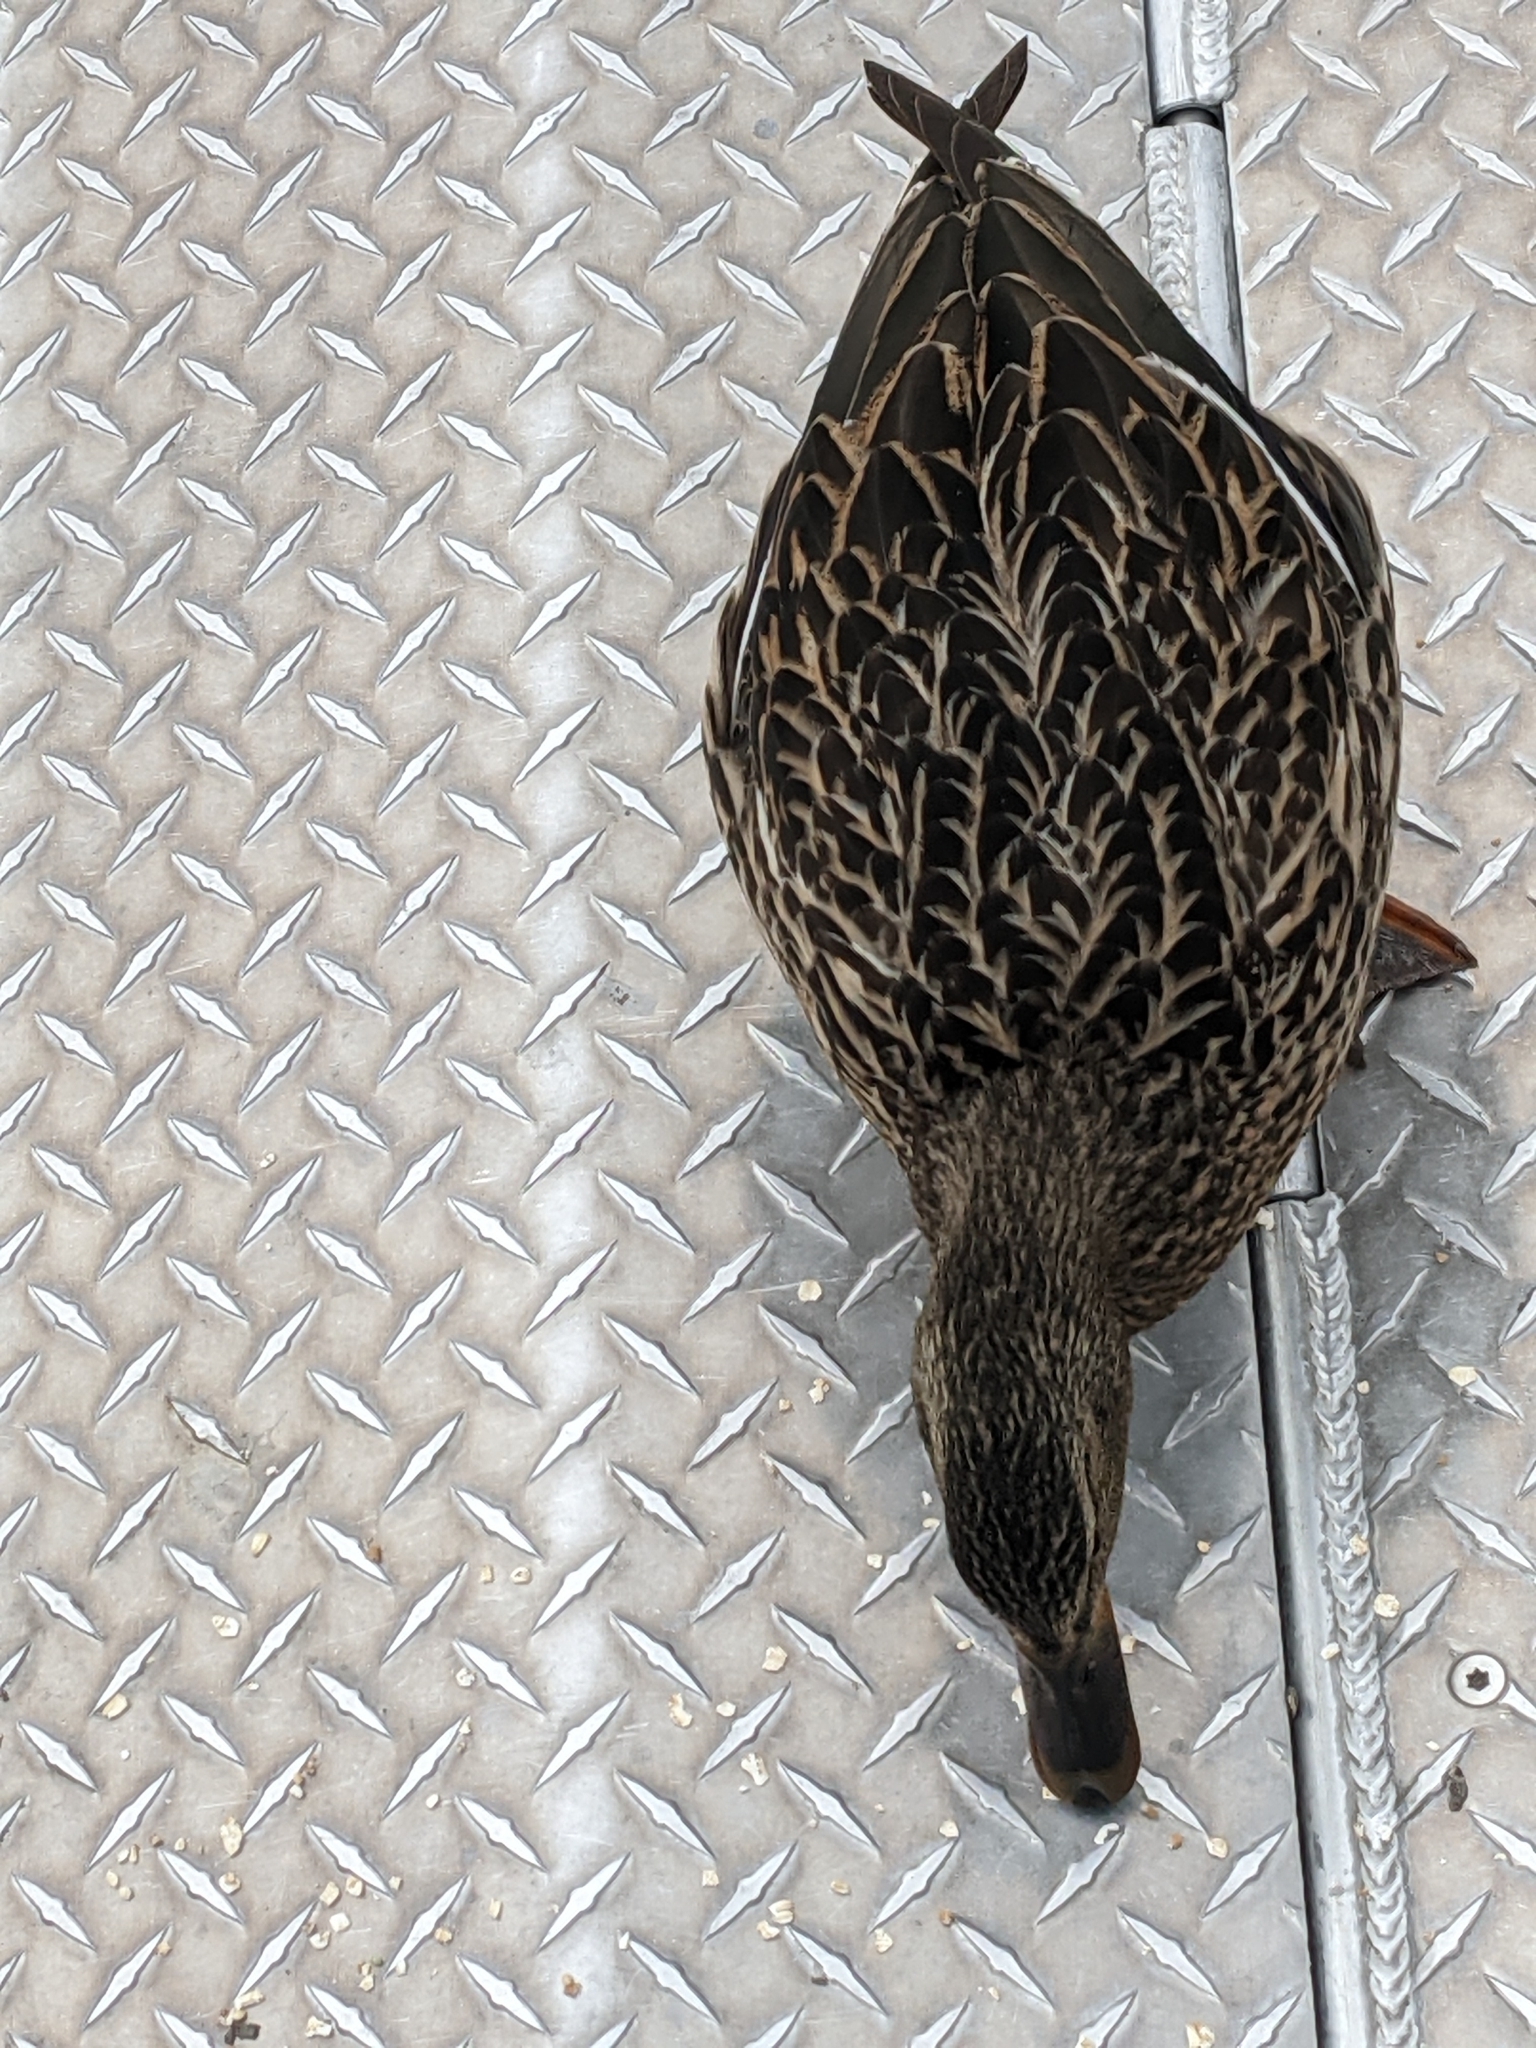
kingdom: Animalia
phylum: Chordata
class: Aves
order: Anseriformes
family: Anatidae
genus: Anas
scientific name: Anas platyrhynchos
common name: Mallard
